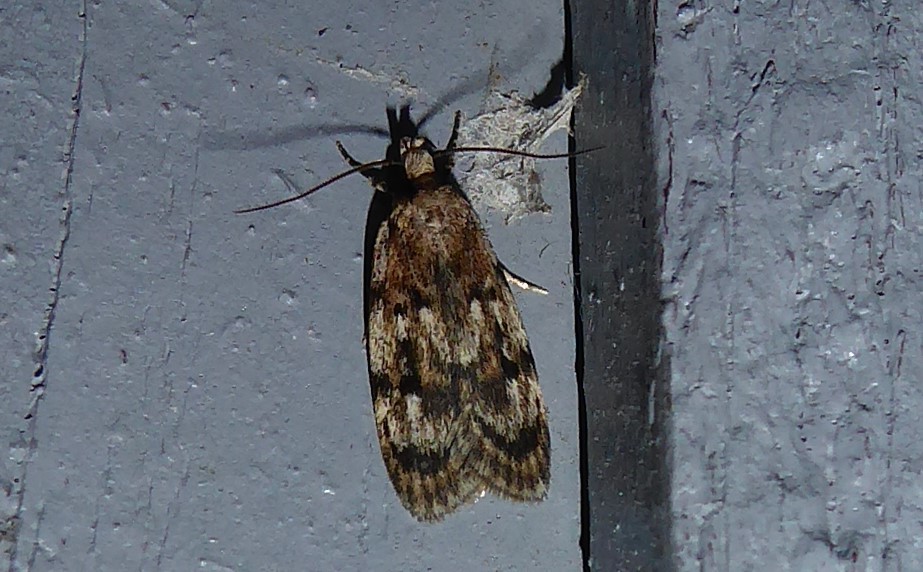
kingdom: Animalia
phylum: Arthropoda
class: Insecta
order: Lepidoptera
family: Oecophoridae
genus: Barea
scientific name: Barea exarcha
